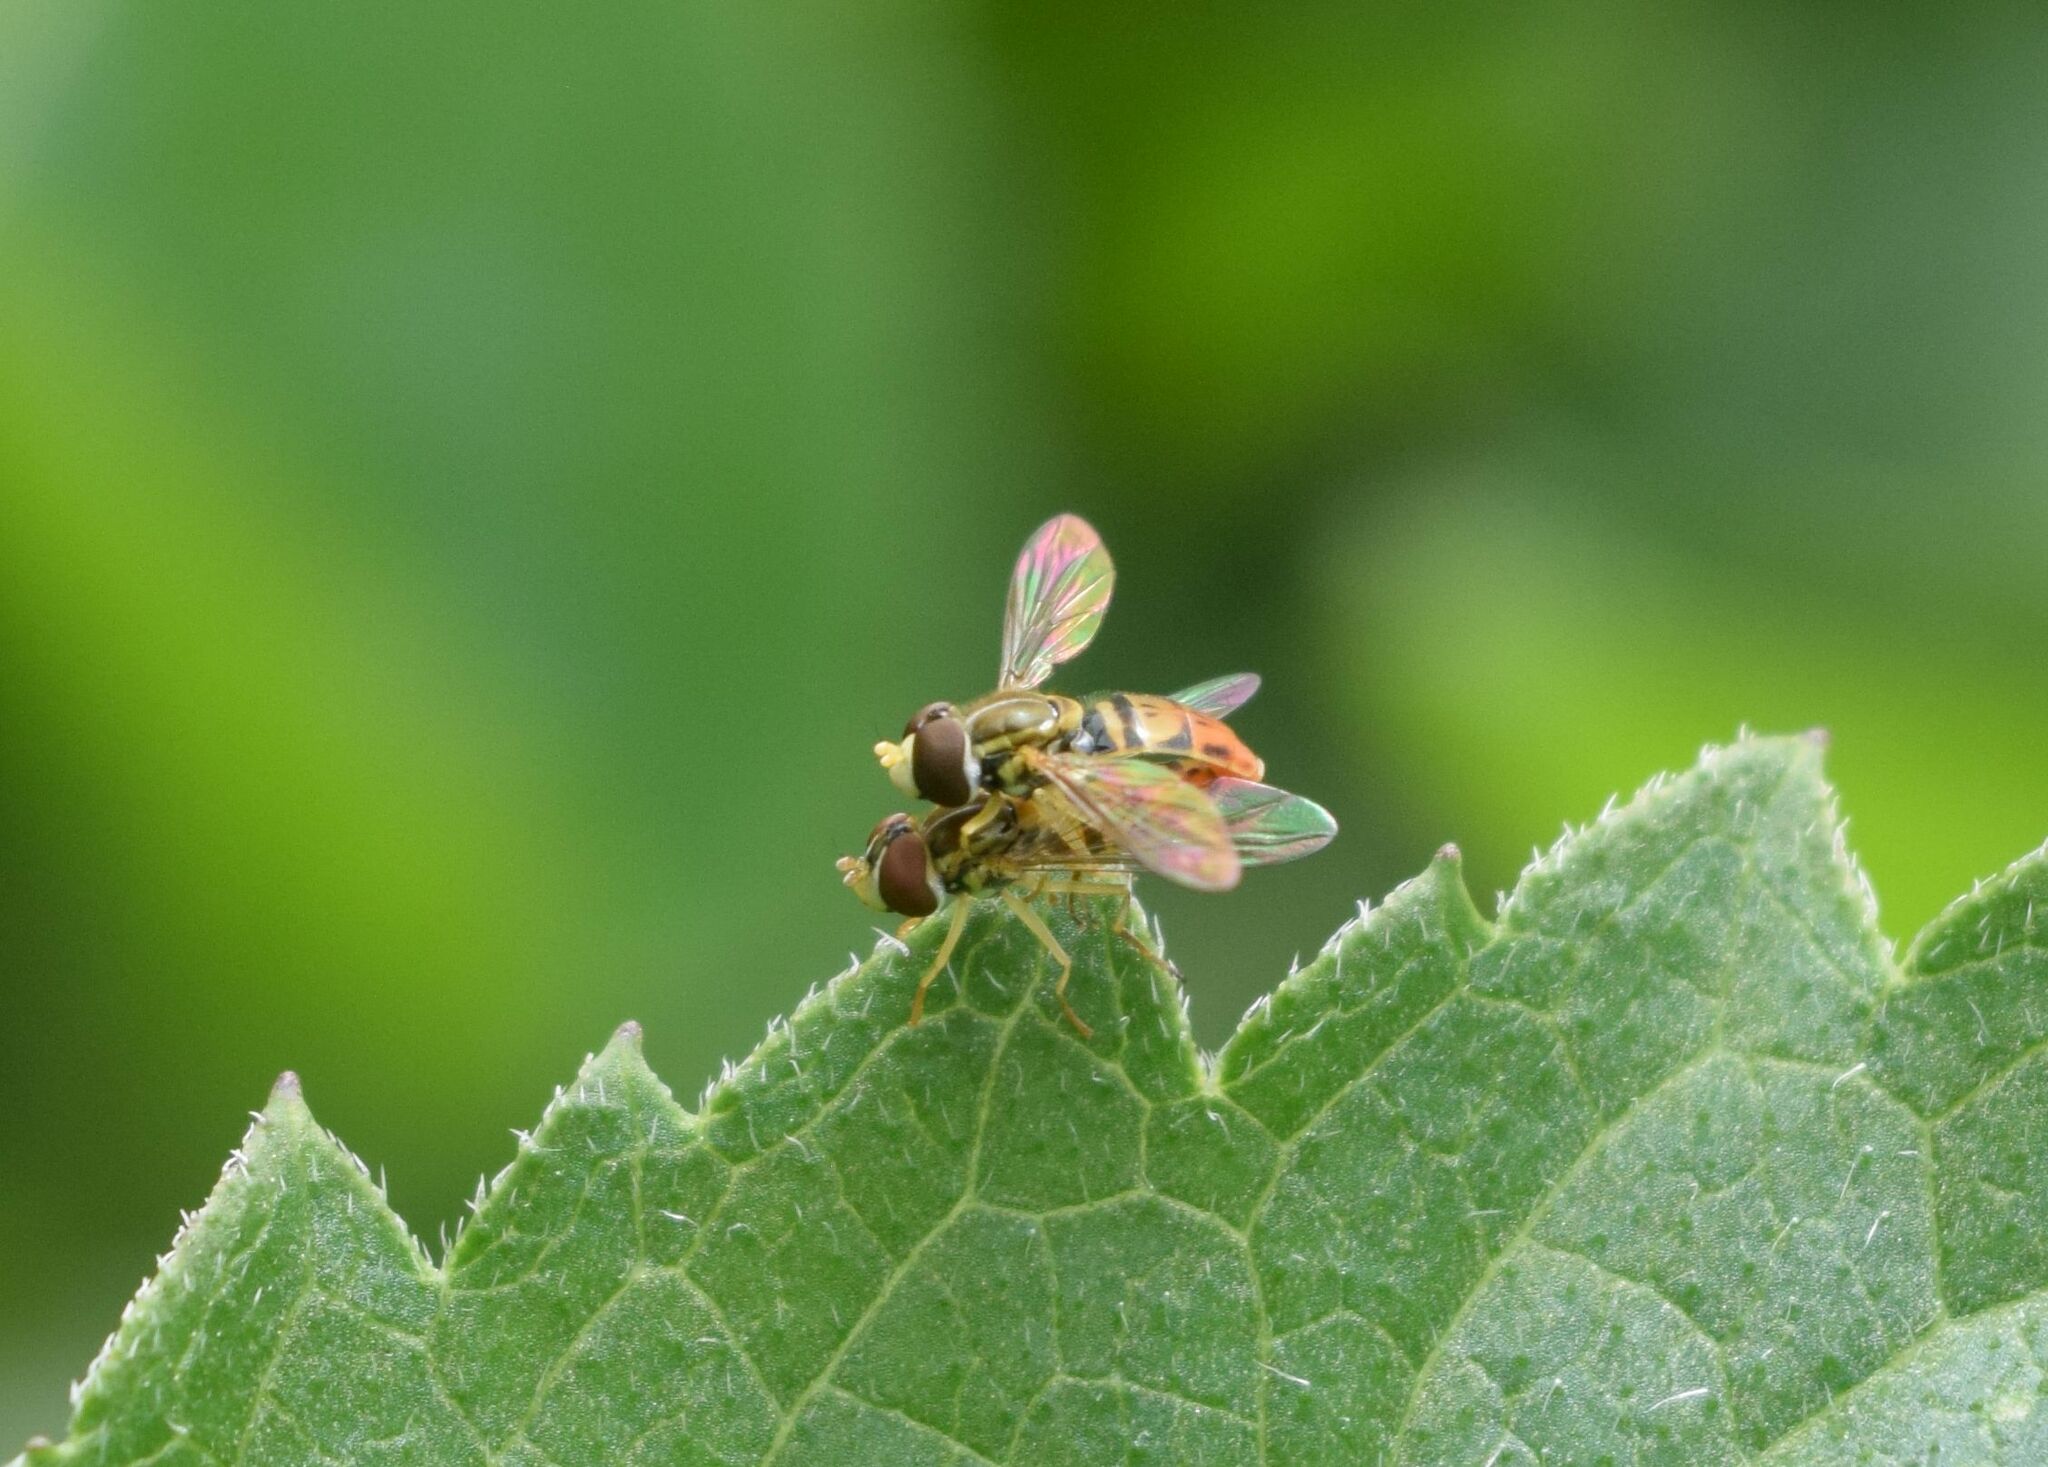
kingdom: Animalia
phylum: Arthropoda
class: Insecta
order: Diptera
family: Syrphidae
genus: Toxomerus
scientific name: Toxomerus marginatus
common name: Syrphid fly
